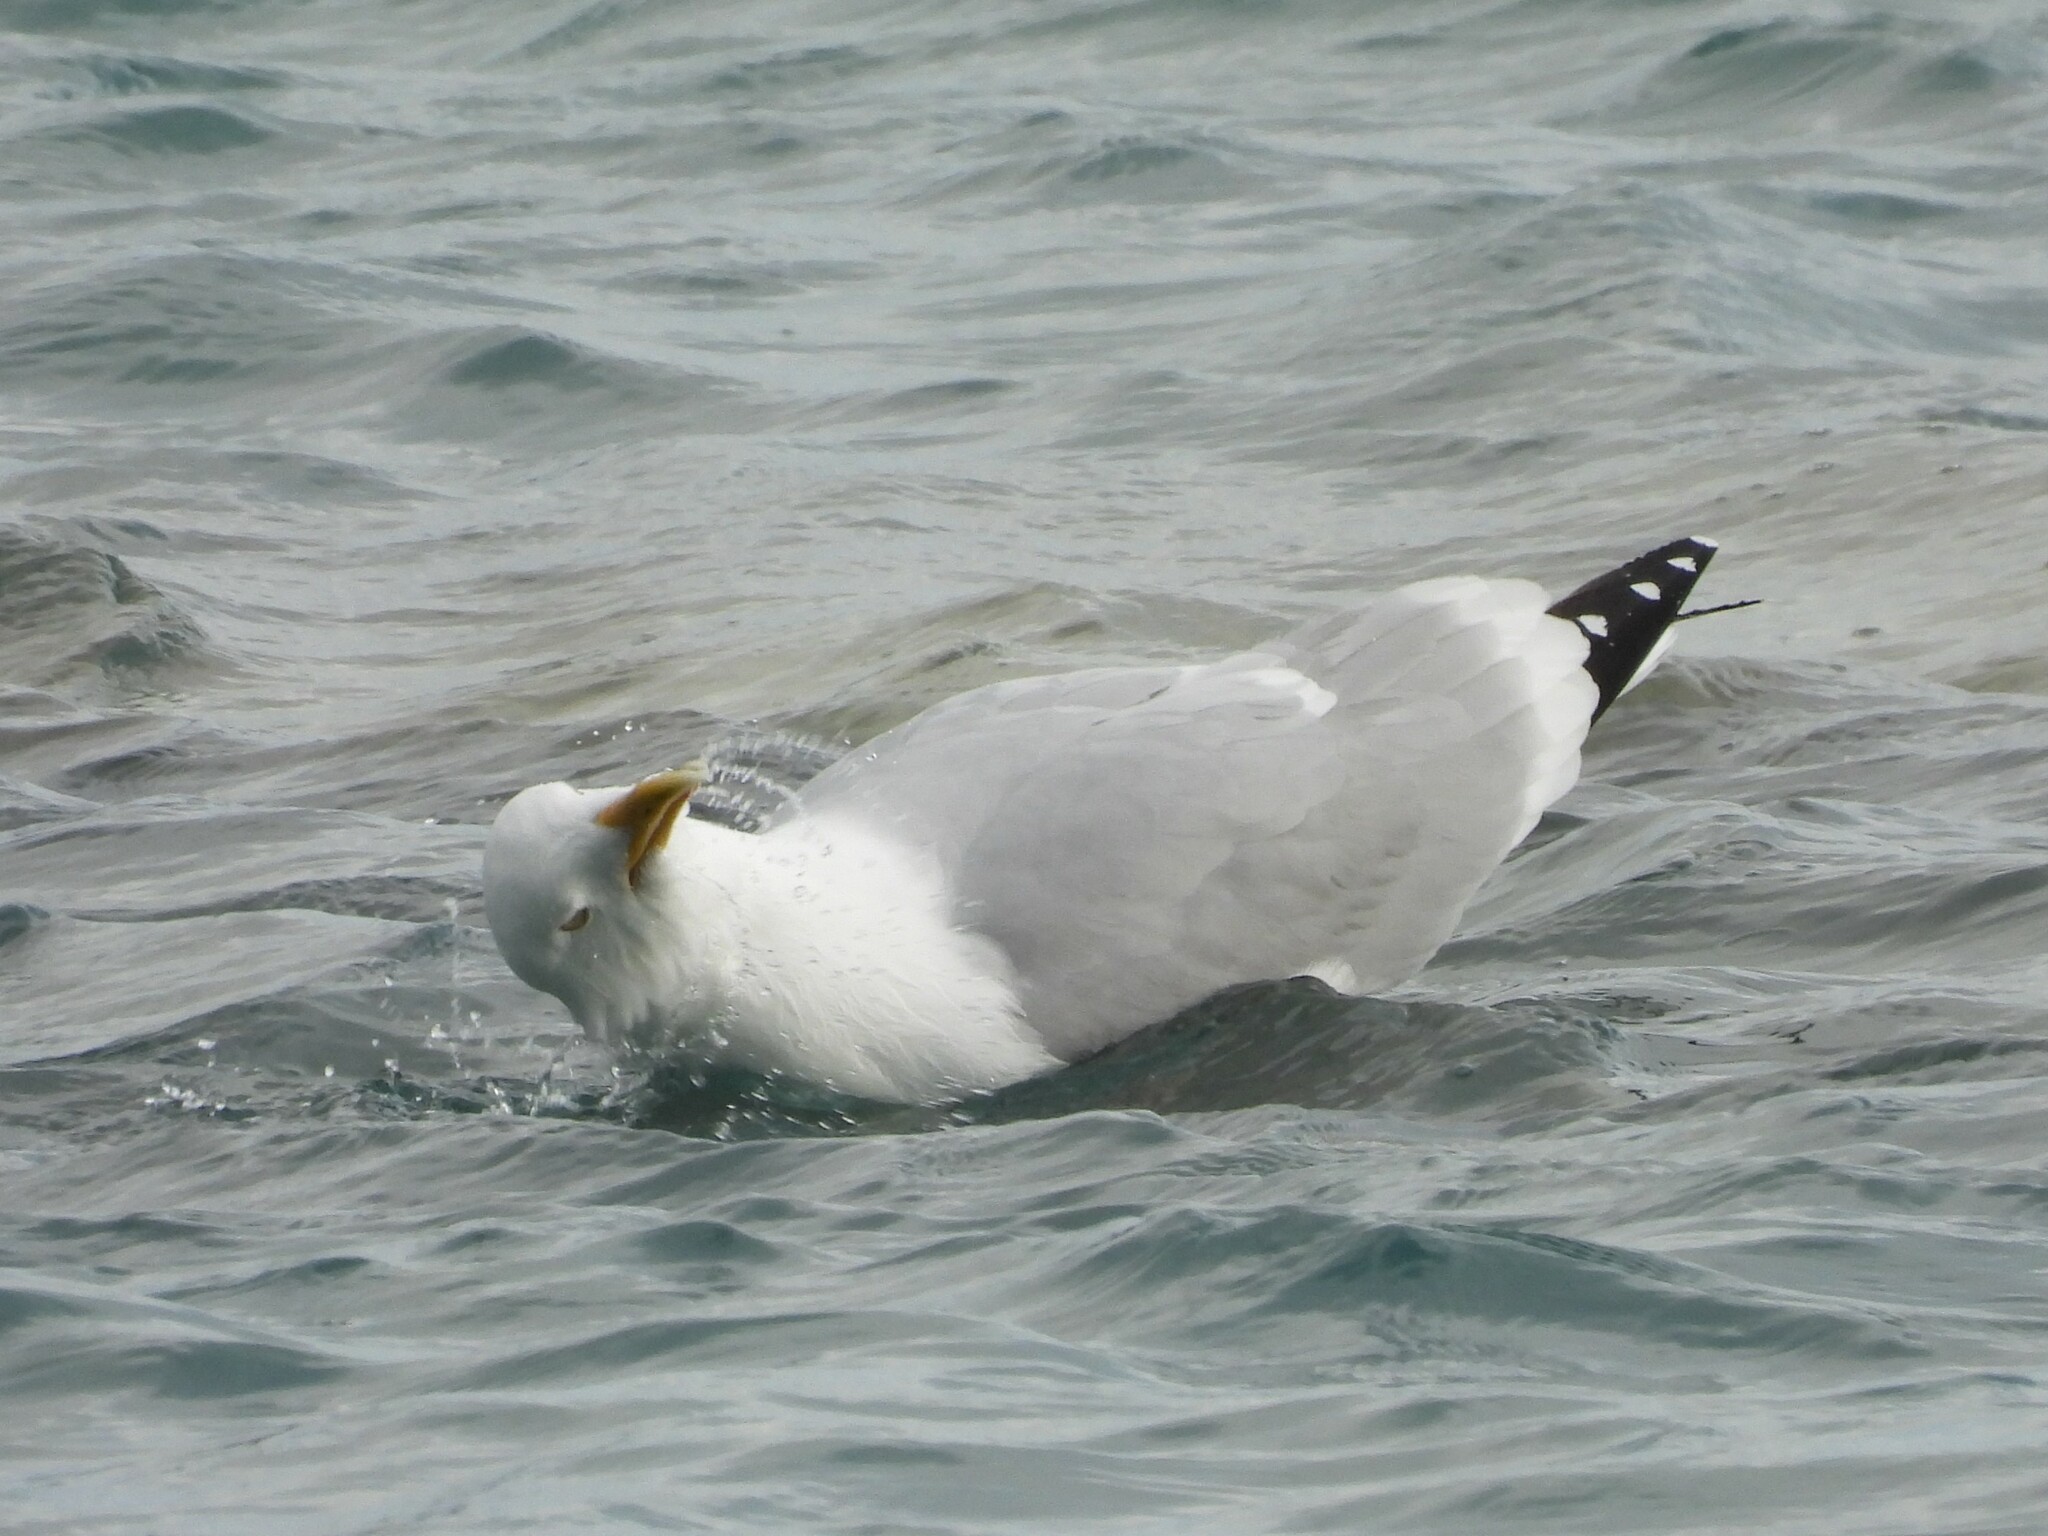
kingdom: Animalia
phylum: Chordata
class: Aves
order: Charadriiformes
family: Laridae
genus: Larus
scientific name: Larus argentatus
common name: Herring gull
